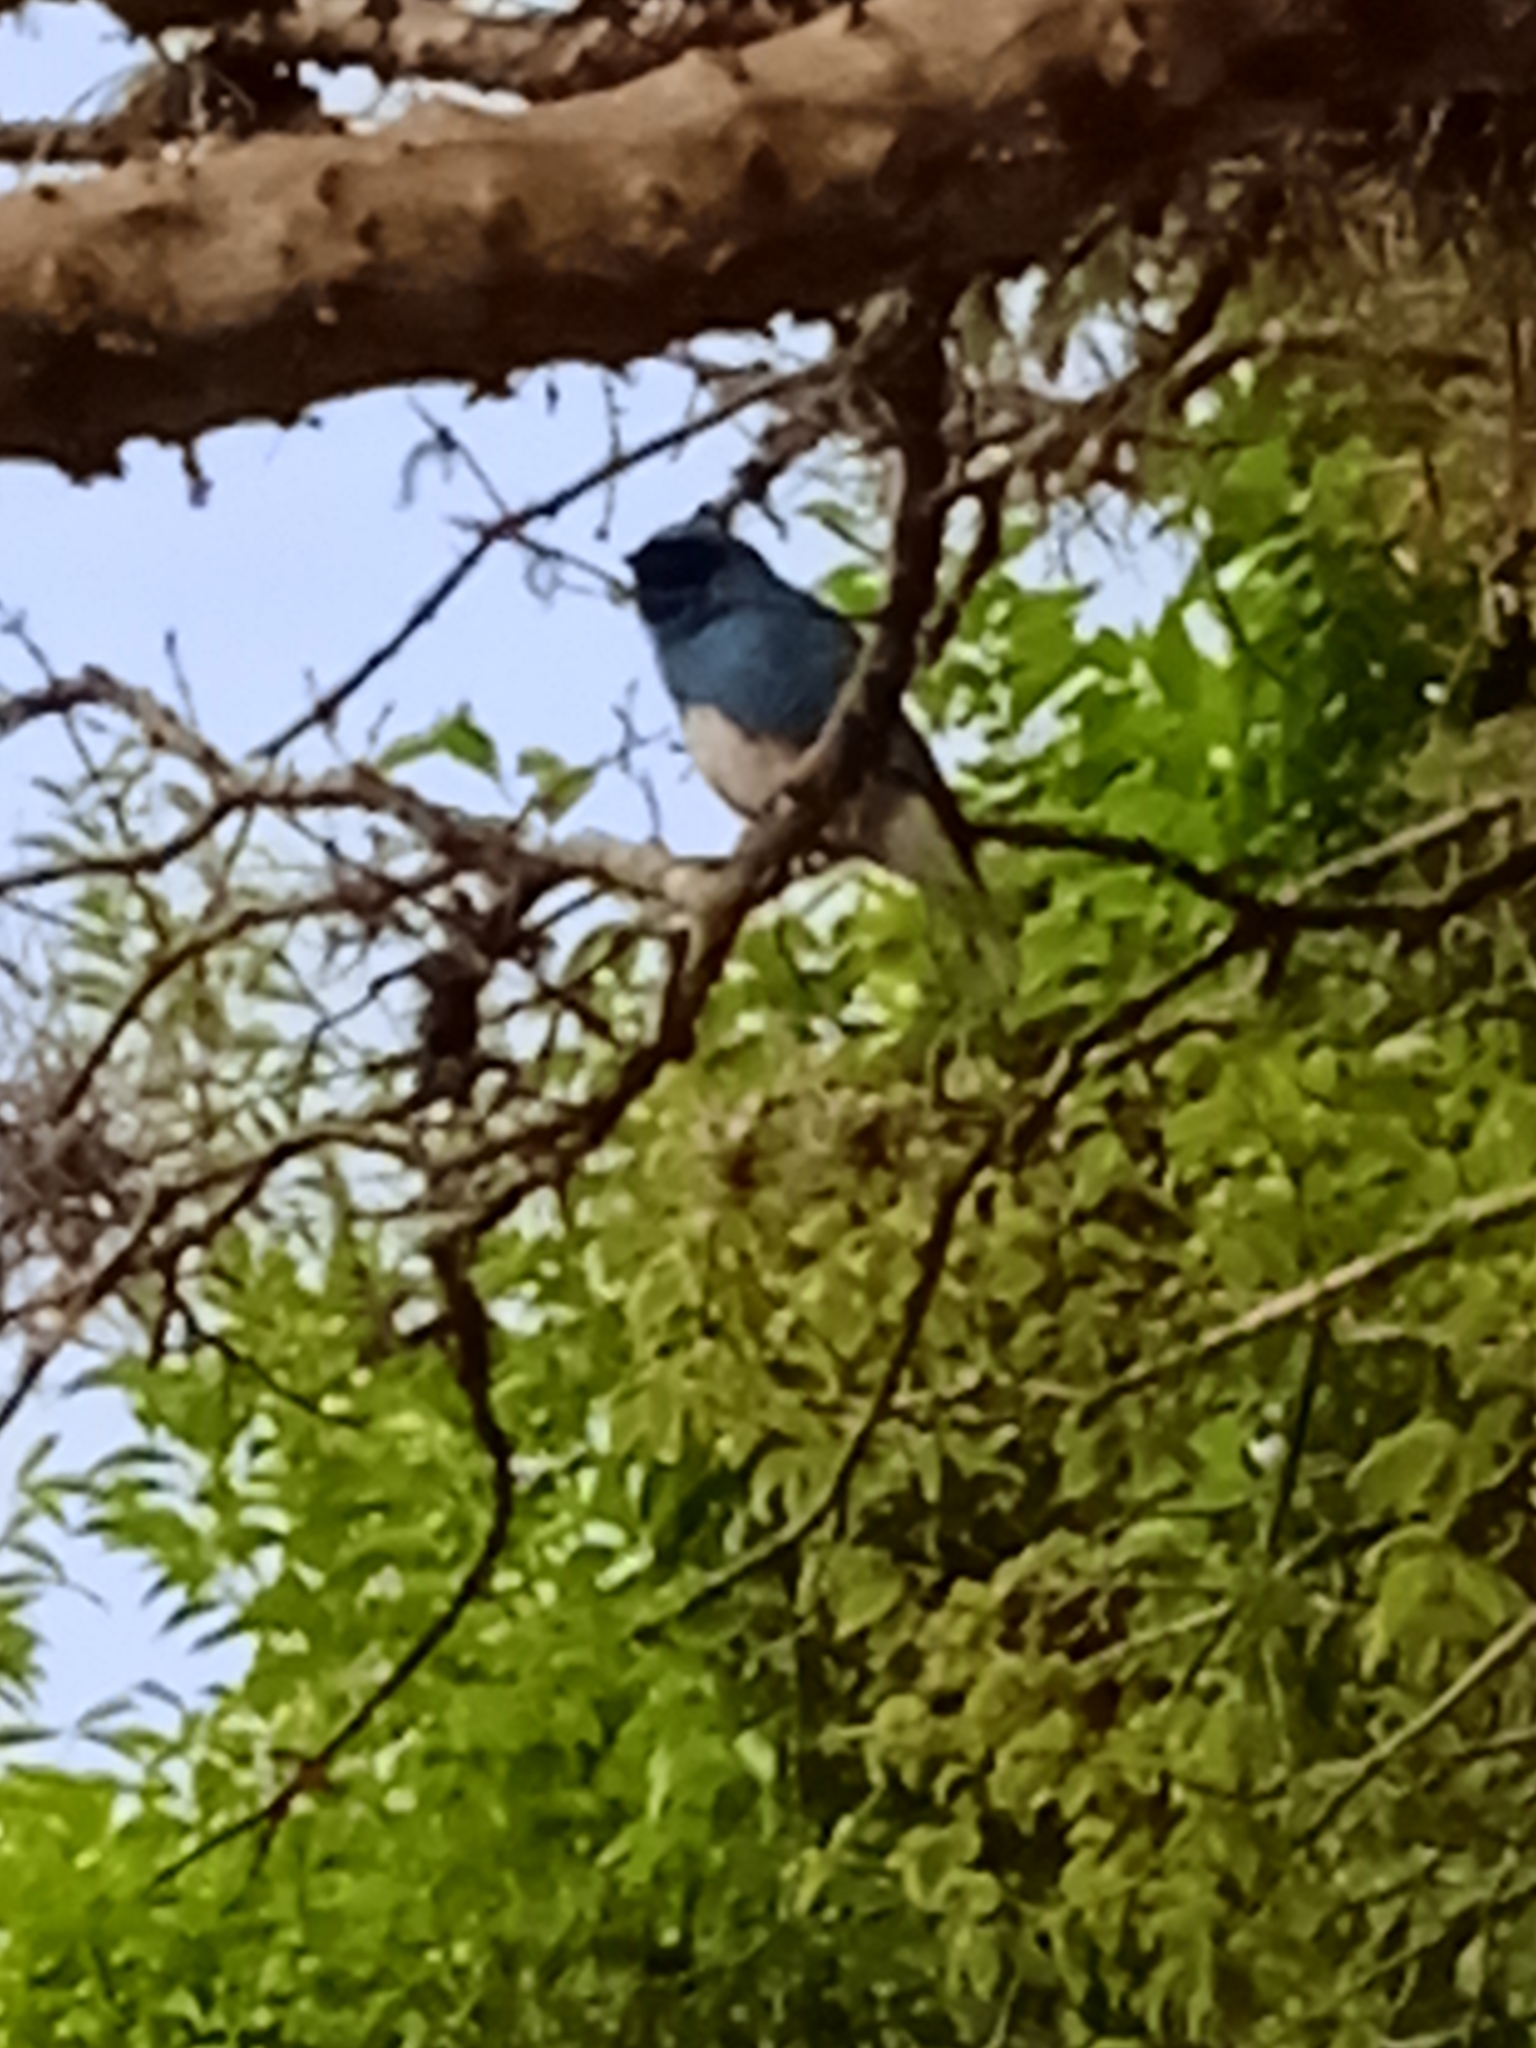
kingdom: Animalia
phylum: Chordata
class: Aves
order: Passeriformes
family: Thraupidae
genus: Tersina
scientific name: Tersina viridis
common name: Swallow tanager
